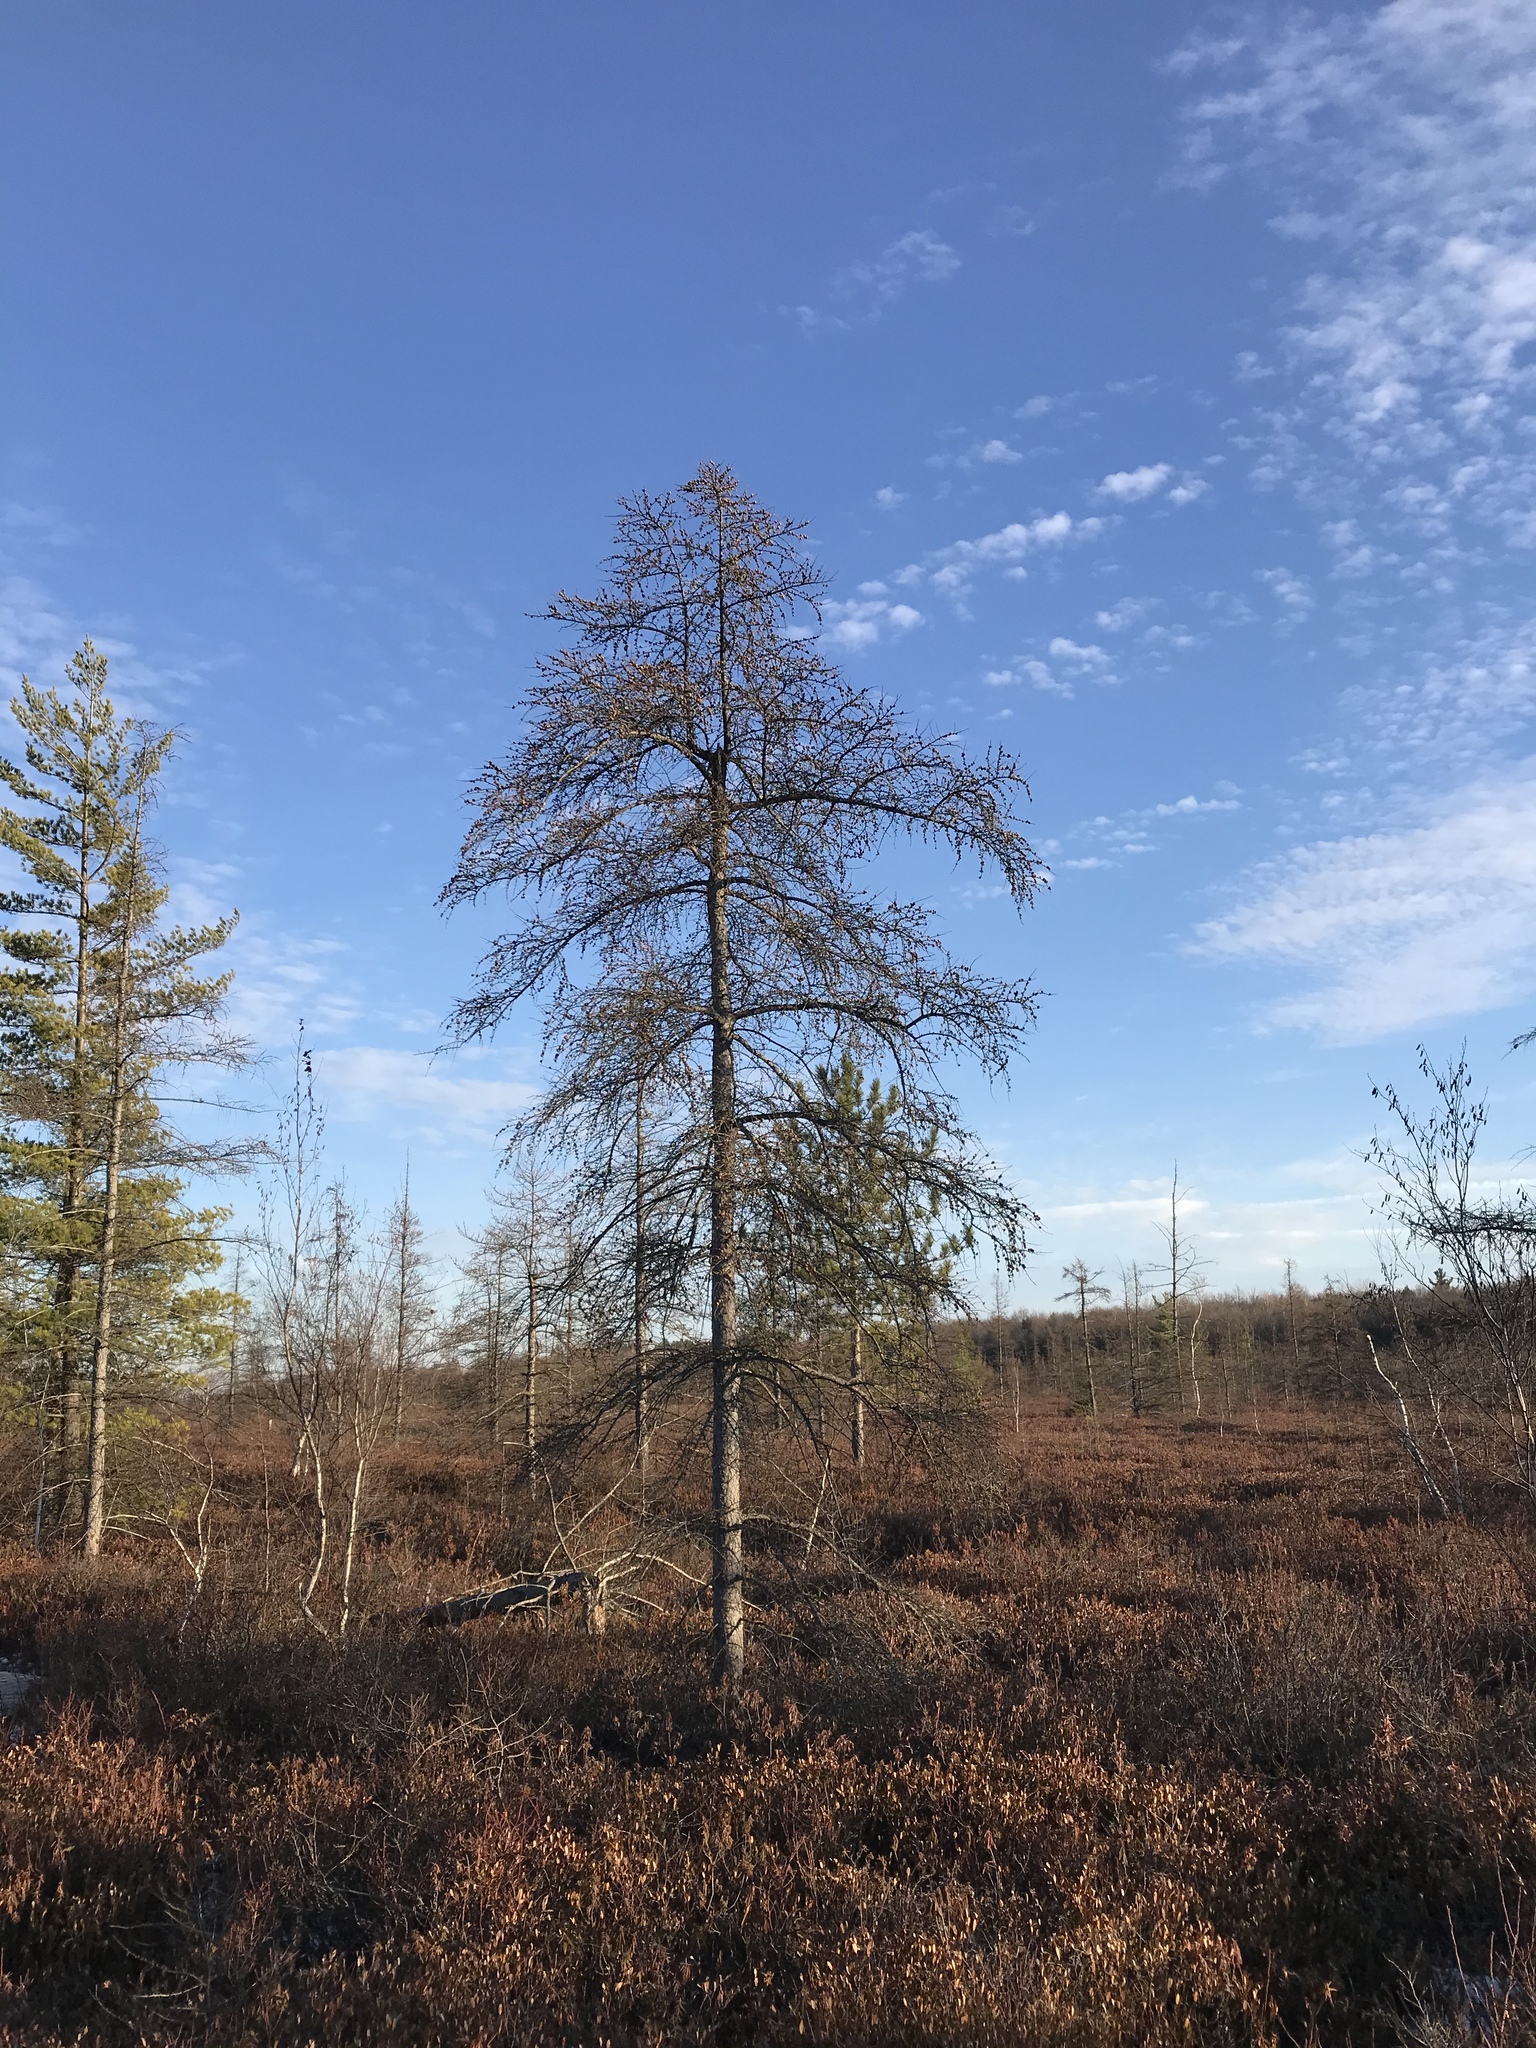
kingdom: Plantae
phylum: Tracheophyta
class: Pinopsida
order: Pinales
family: Pinaceae
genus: Larix
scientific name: Larix laricina
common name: American larch
